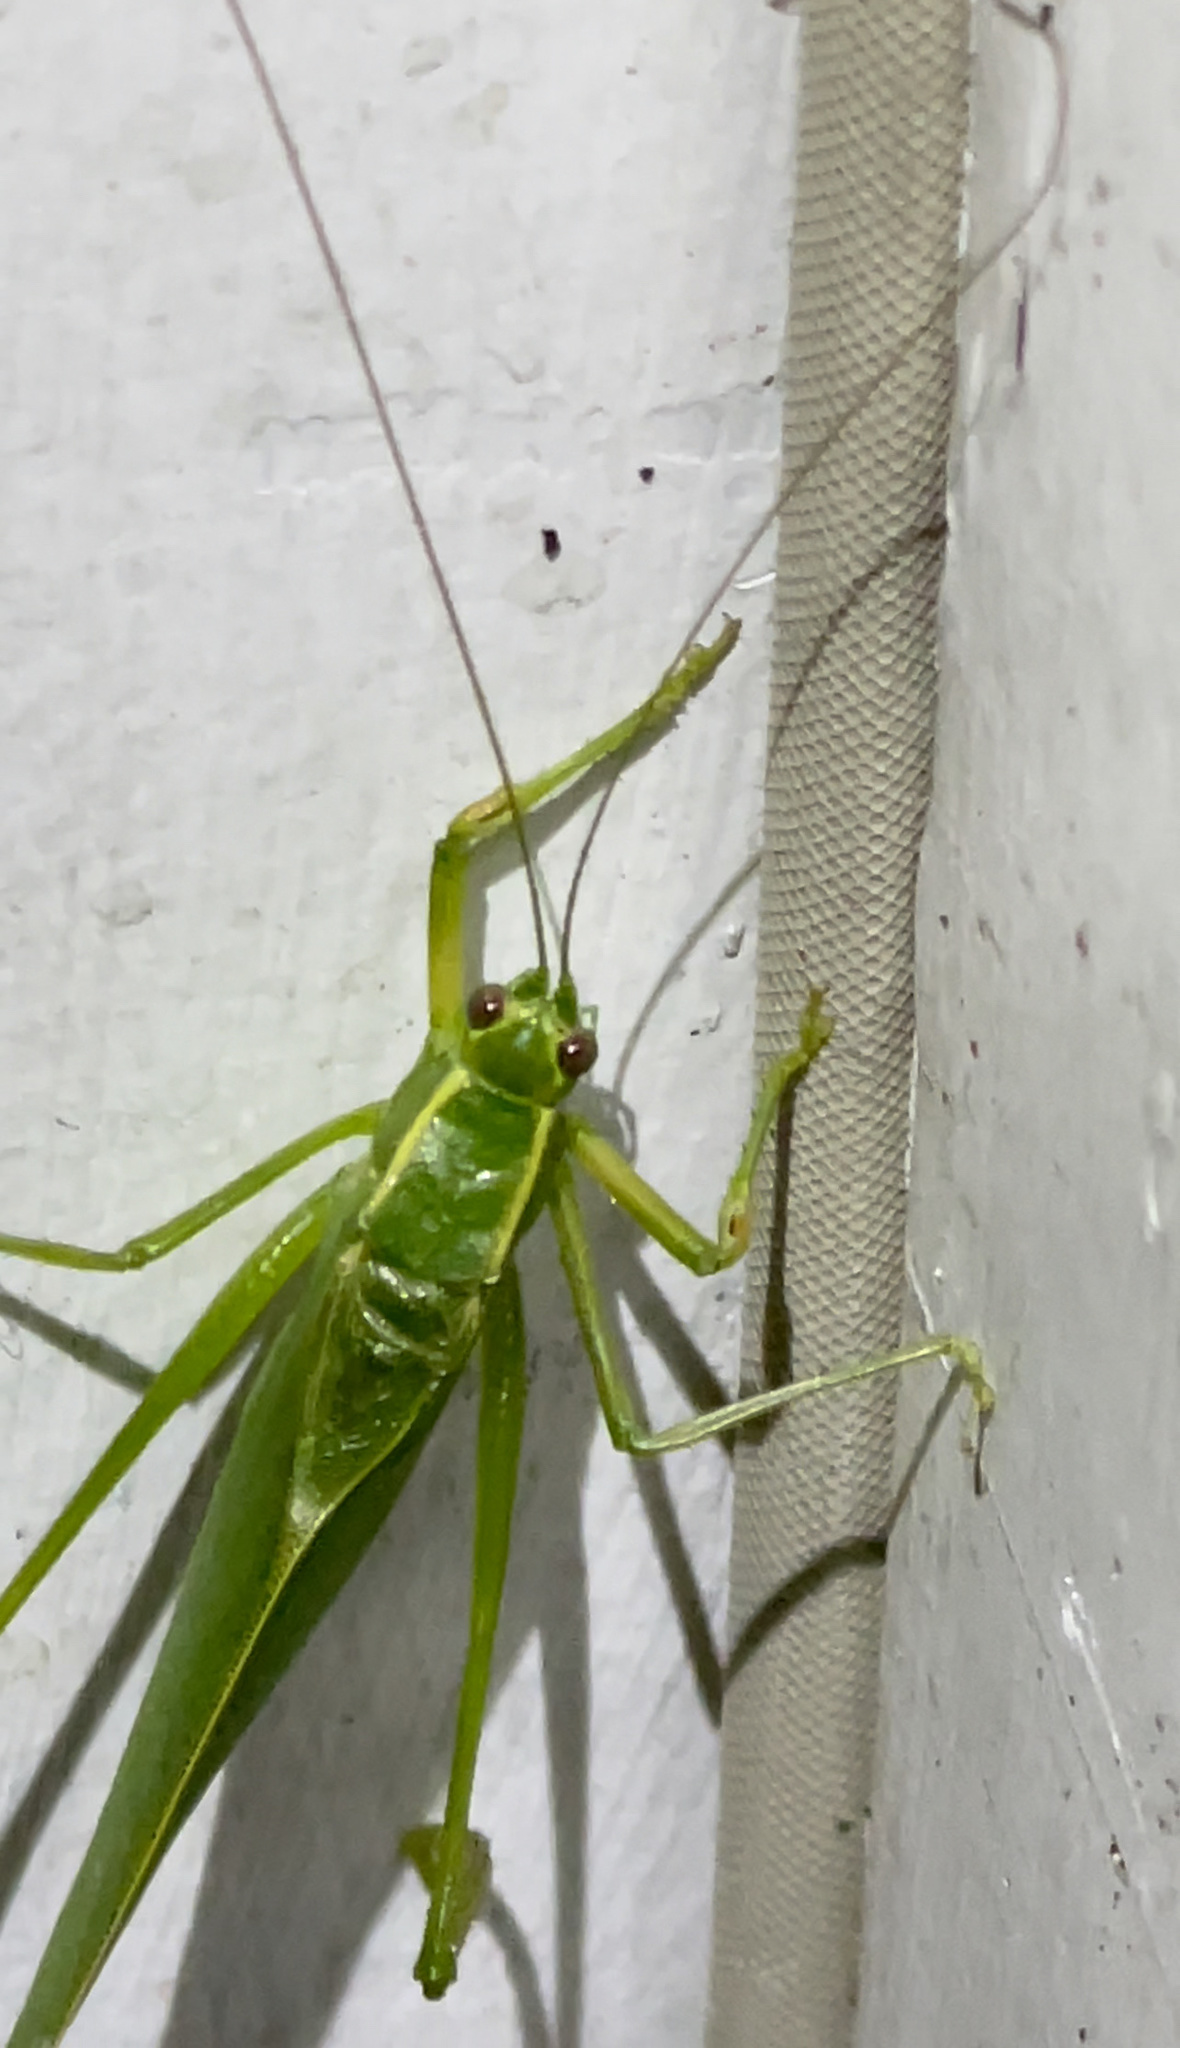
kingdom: Animalia
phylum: Arthropoda
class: Insecta
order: Orthoptera
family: Tettigoniidae
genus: Scudderia
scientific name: Scudderia septentrionalis
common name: Northern bush-katydid
